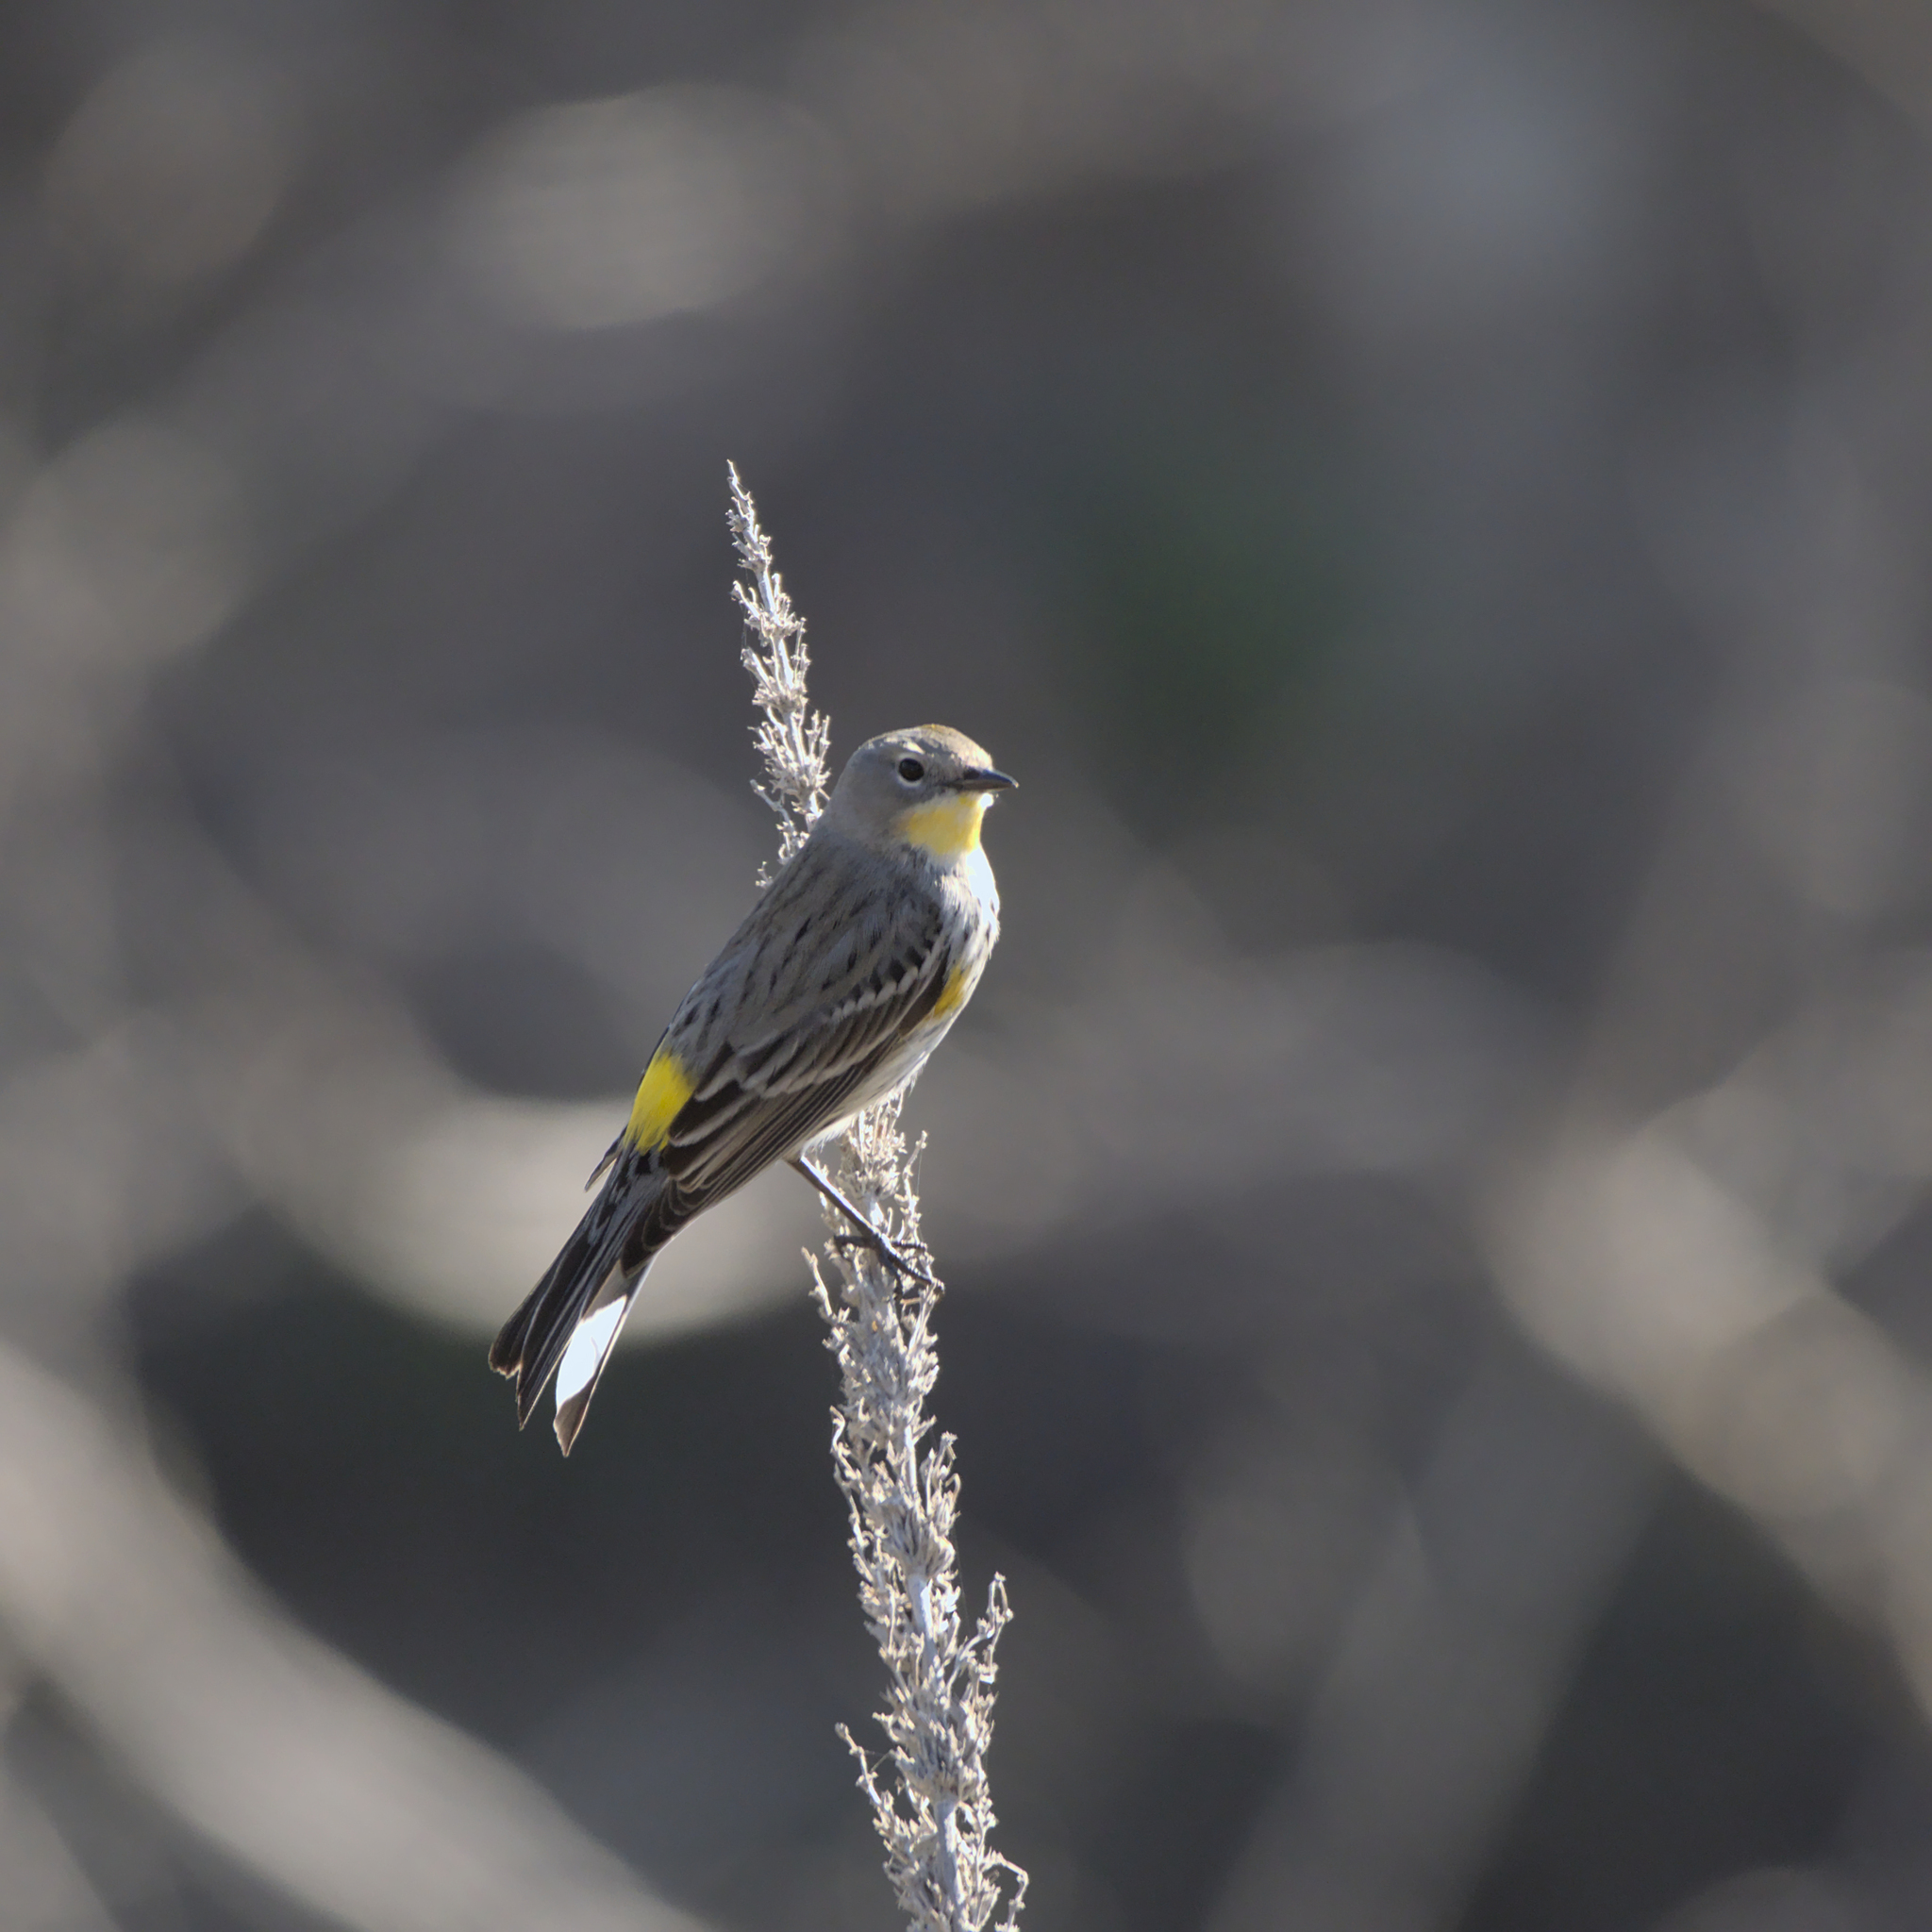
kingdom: Animalia
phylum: Chordata
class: Aves
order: Passeriformes
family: Parulidae
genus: Setophaga
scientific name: Setophaga coronata
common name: Myrtle warbler
